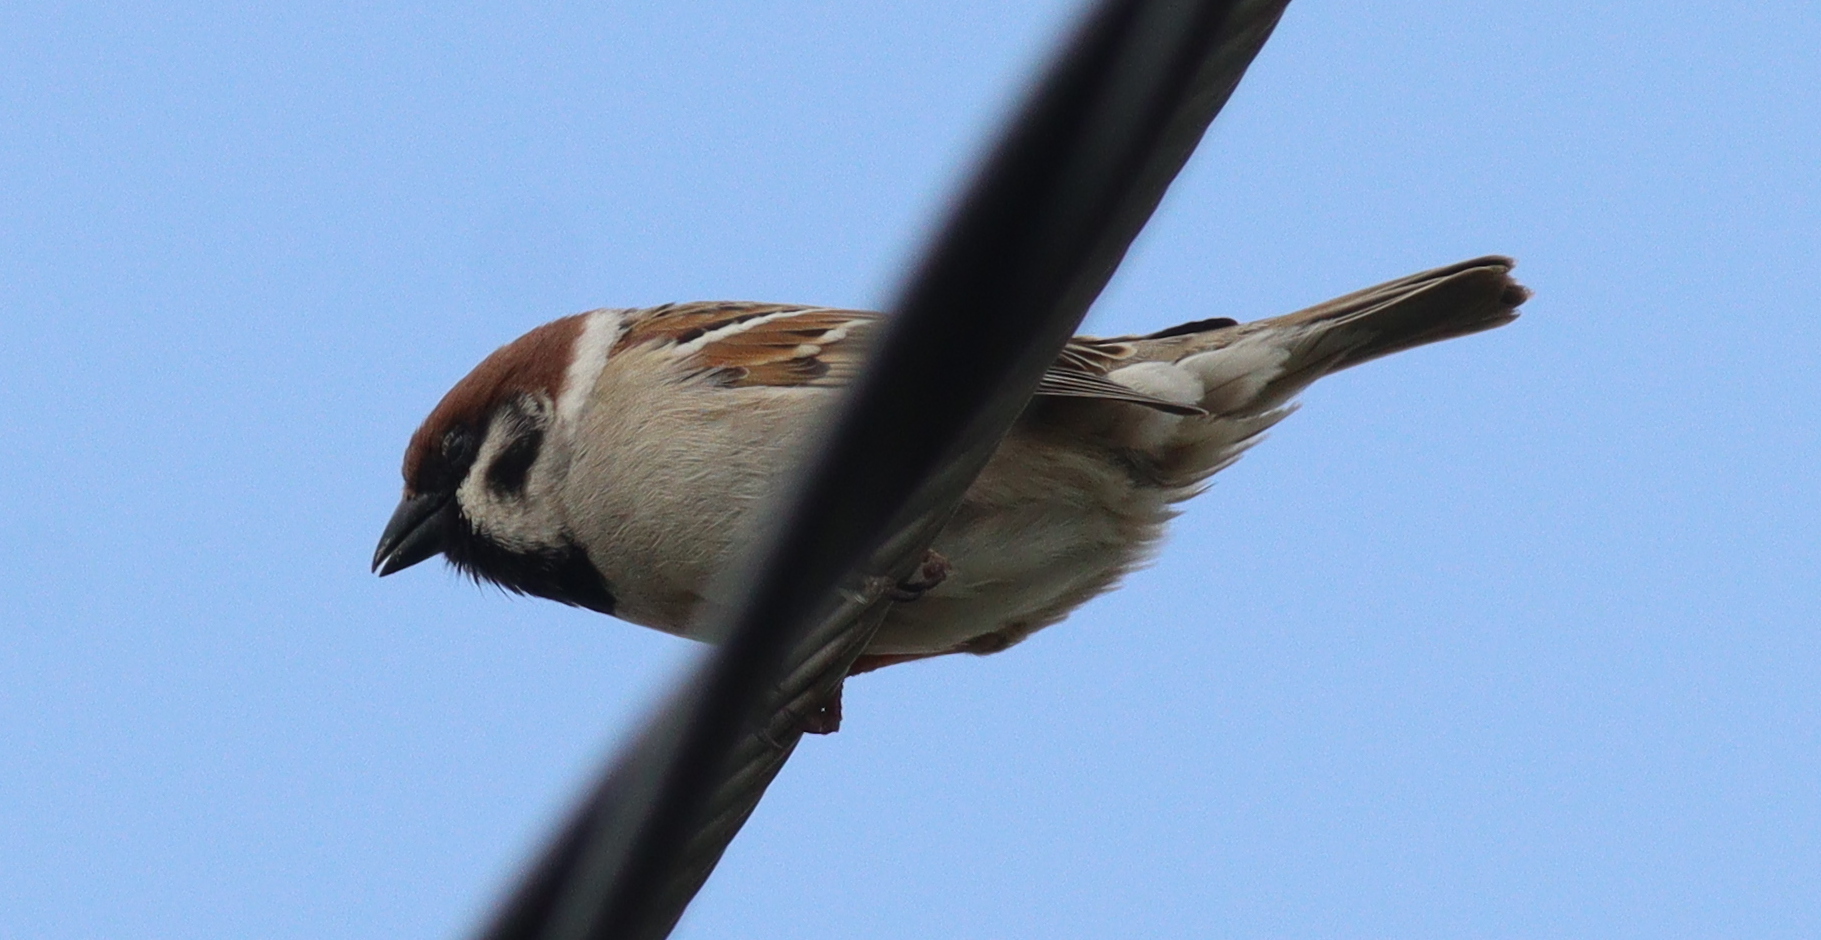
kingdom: Animalia
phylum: Chordata
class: Aves
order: Passeriformes
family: Passeridae
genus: Passer
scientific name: Passer montanus
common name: Eurasian tree sparrow
